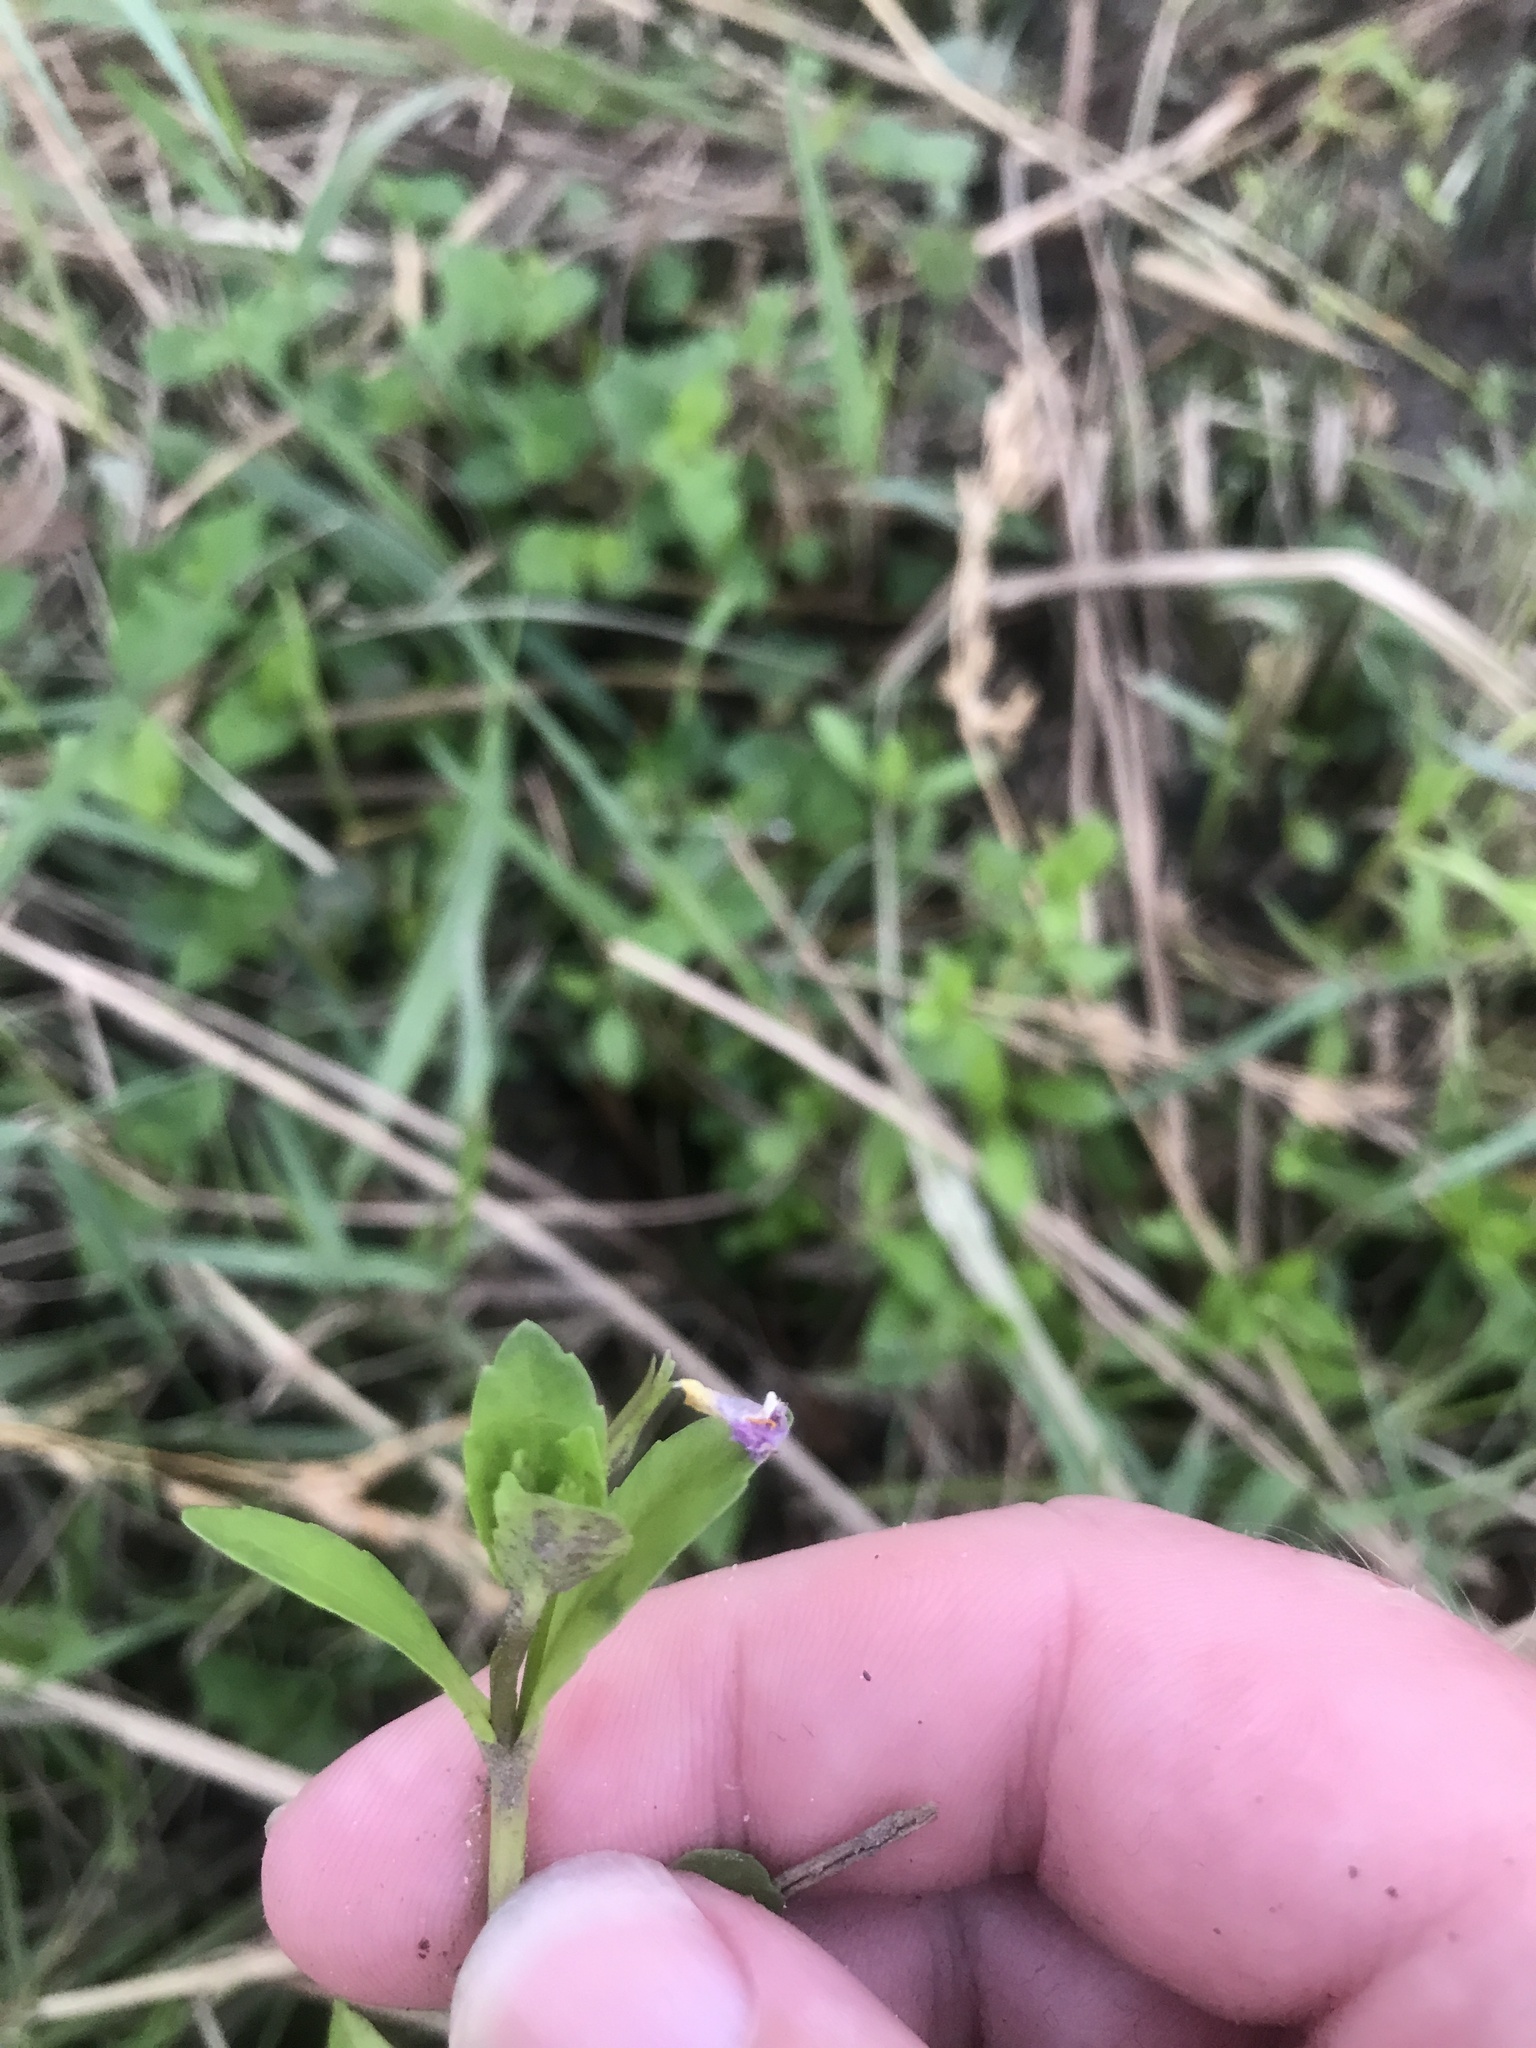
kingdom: Plantae
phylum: Tracheophyta
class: Magnoliopsida
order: Lamiales
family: Linderniaceae
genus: Bonnaya
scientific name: Bonnaya antipoda
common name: Sparrow false pimpernel
